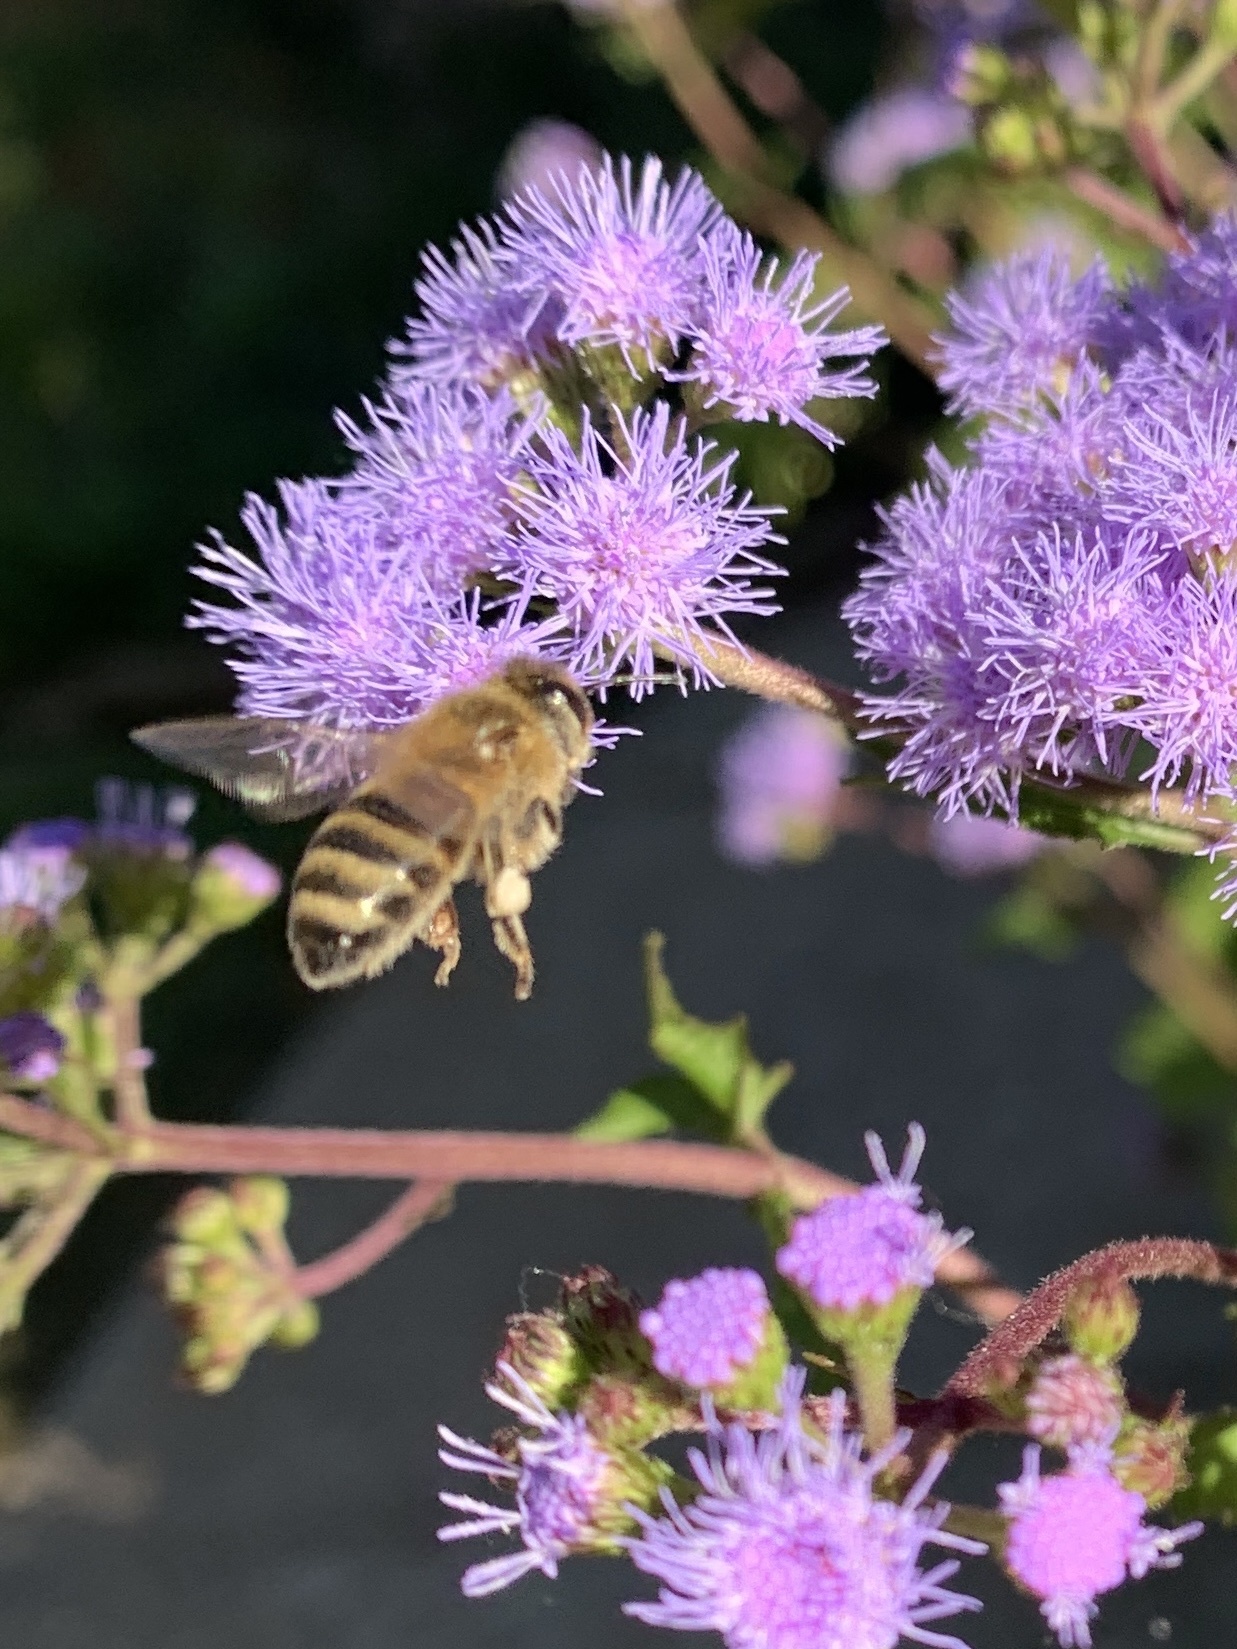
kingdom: Animalia
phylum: Arthropoda
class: Insecta
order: Hymenoptera
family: Apidae
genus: Apis
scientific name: Apis mellifera
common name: Honey bee
